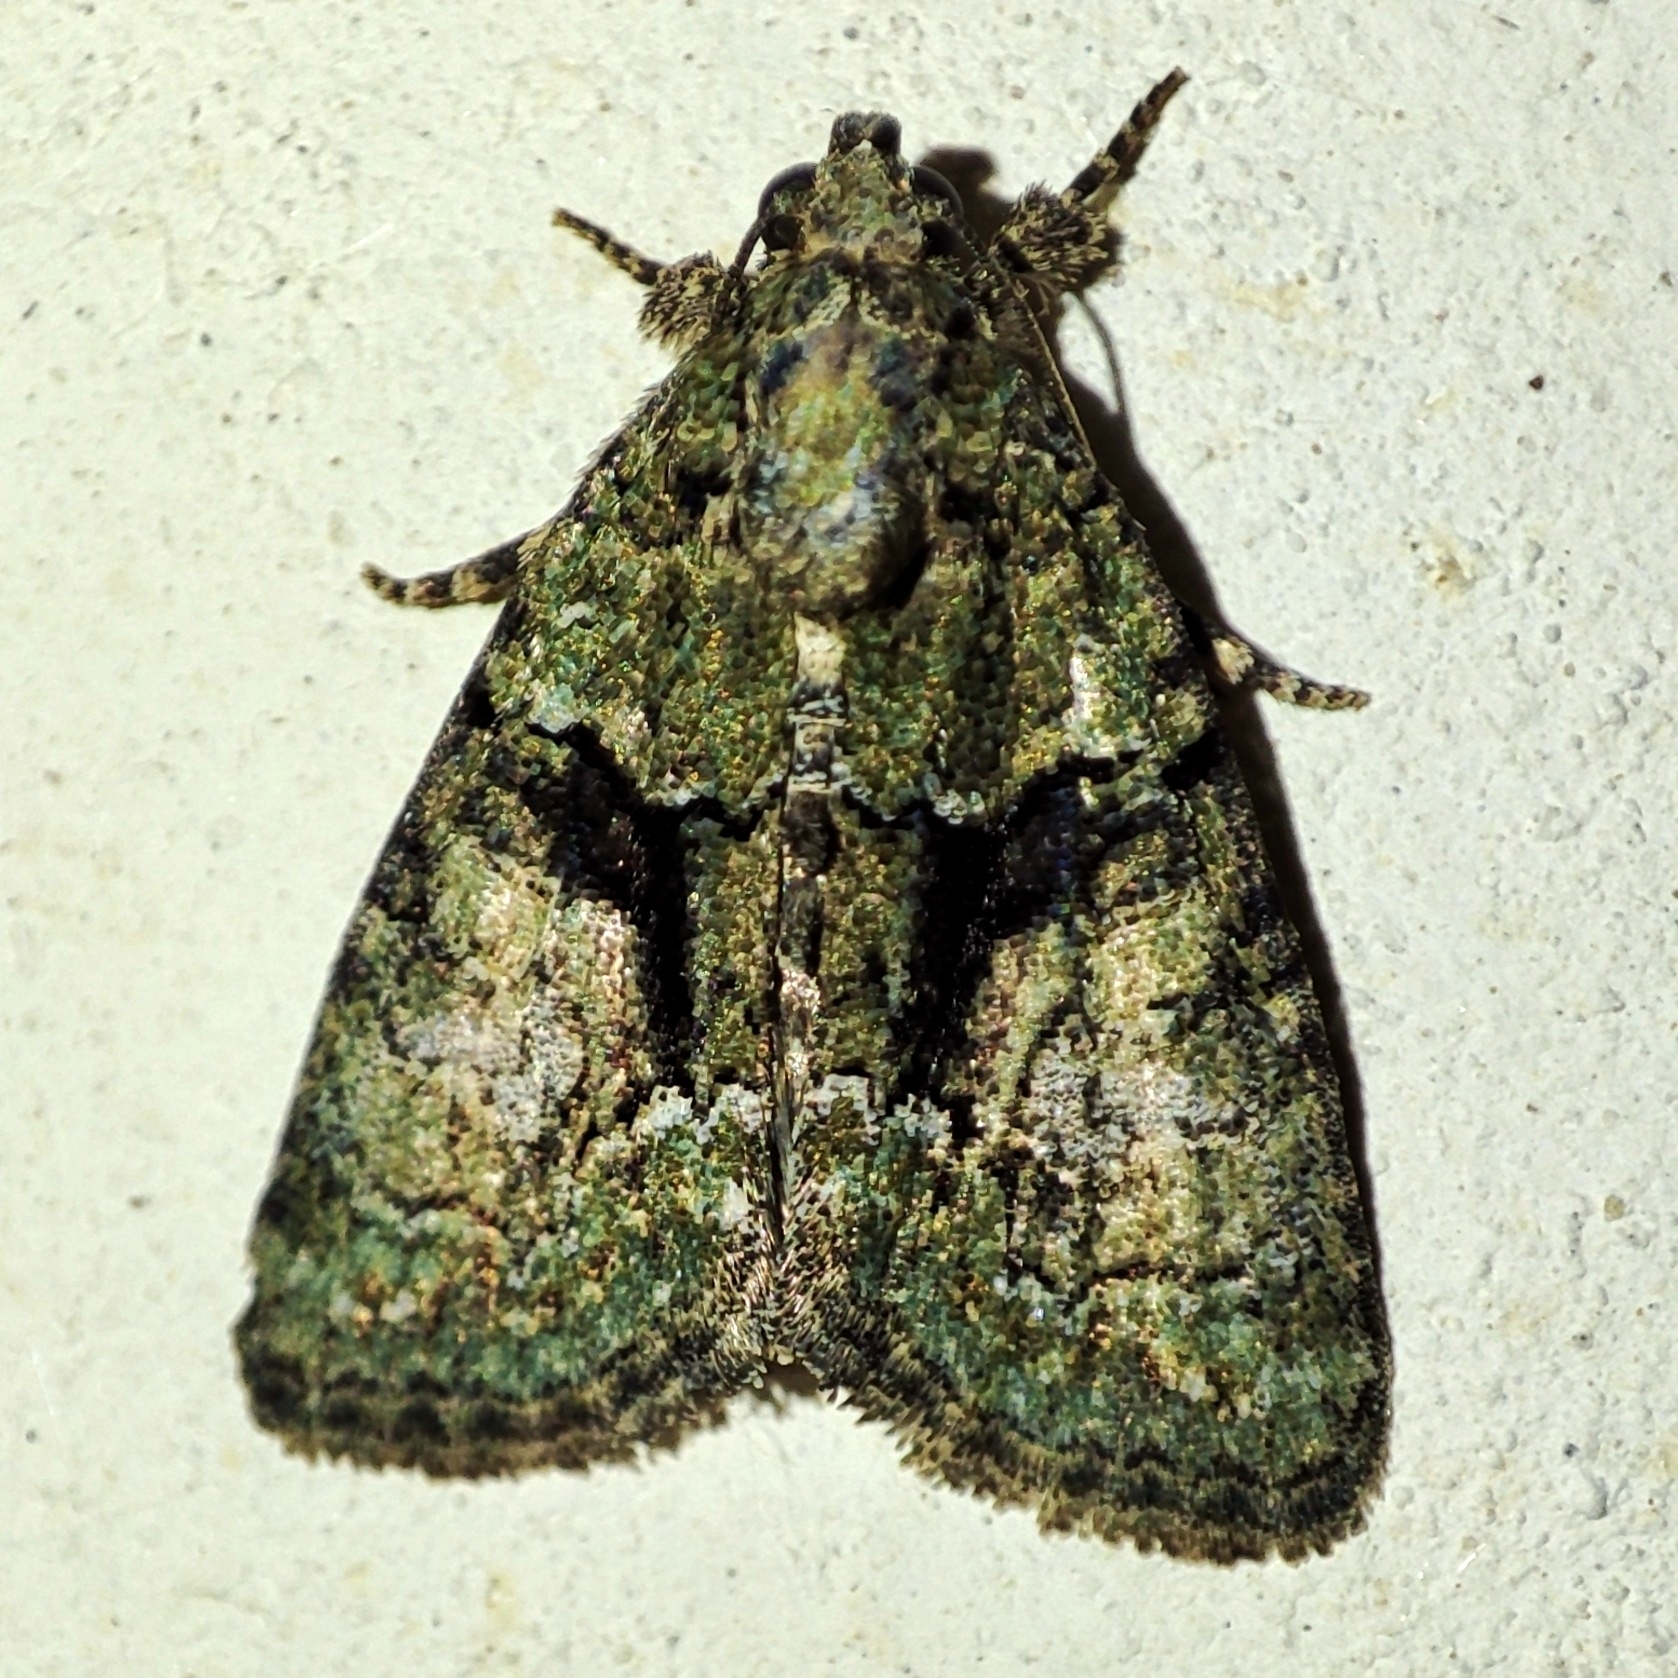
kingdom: Animalia
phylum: Arthropoda
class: Insecta
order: Lepidoptera
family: Noctuidae
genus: Cryphia
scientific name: Cryphia algae
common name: Tree-lichen beauty
